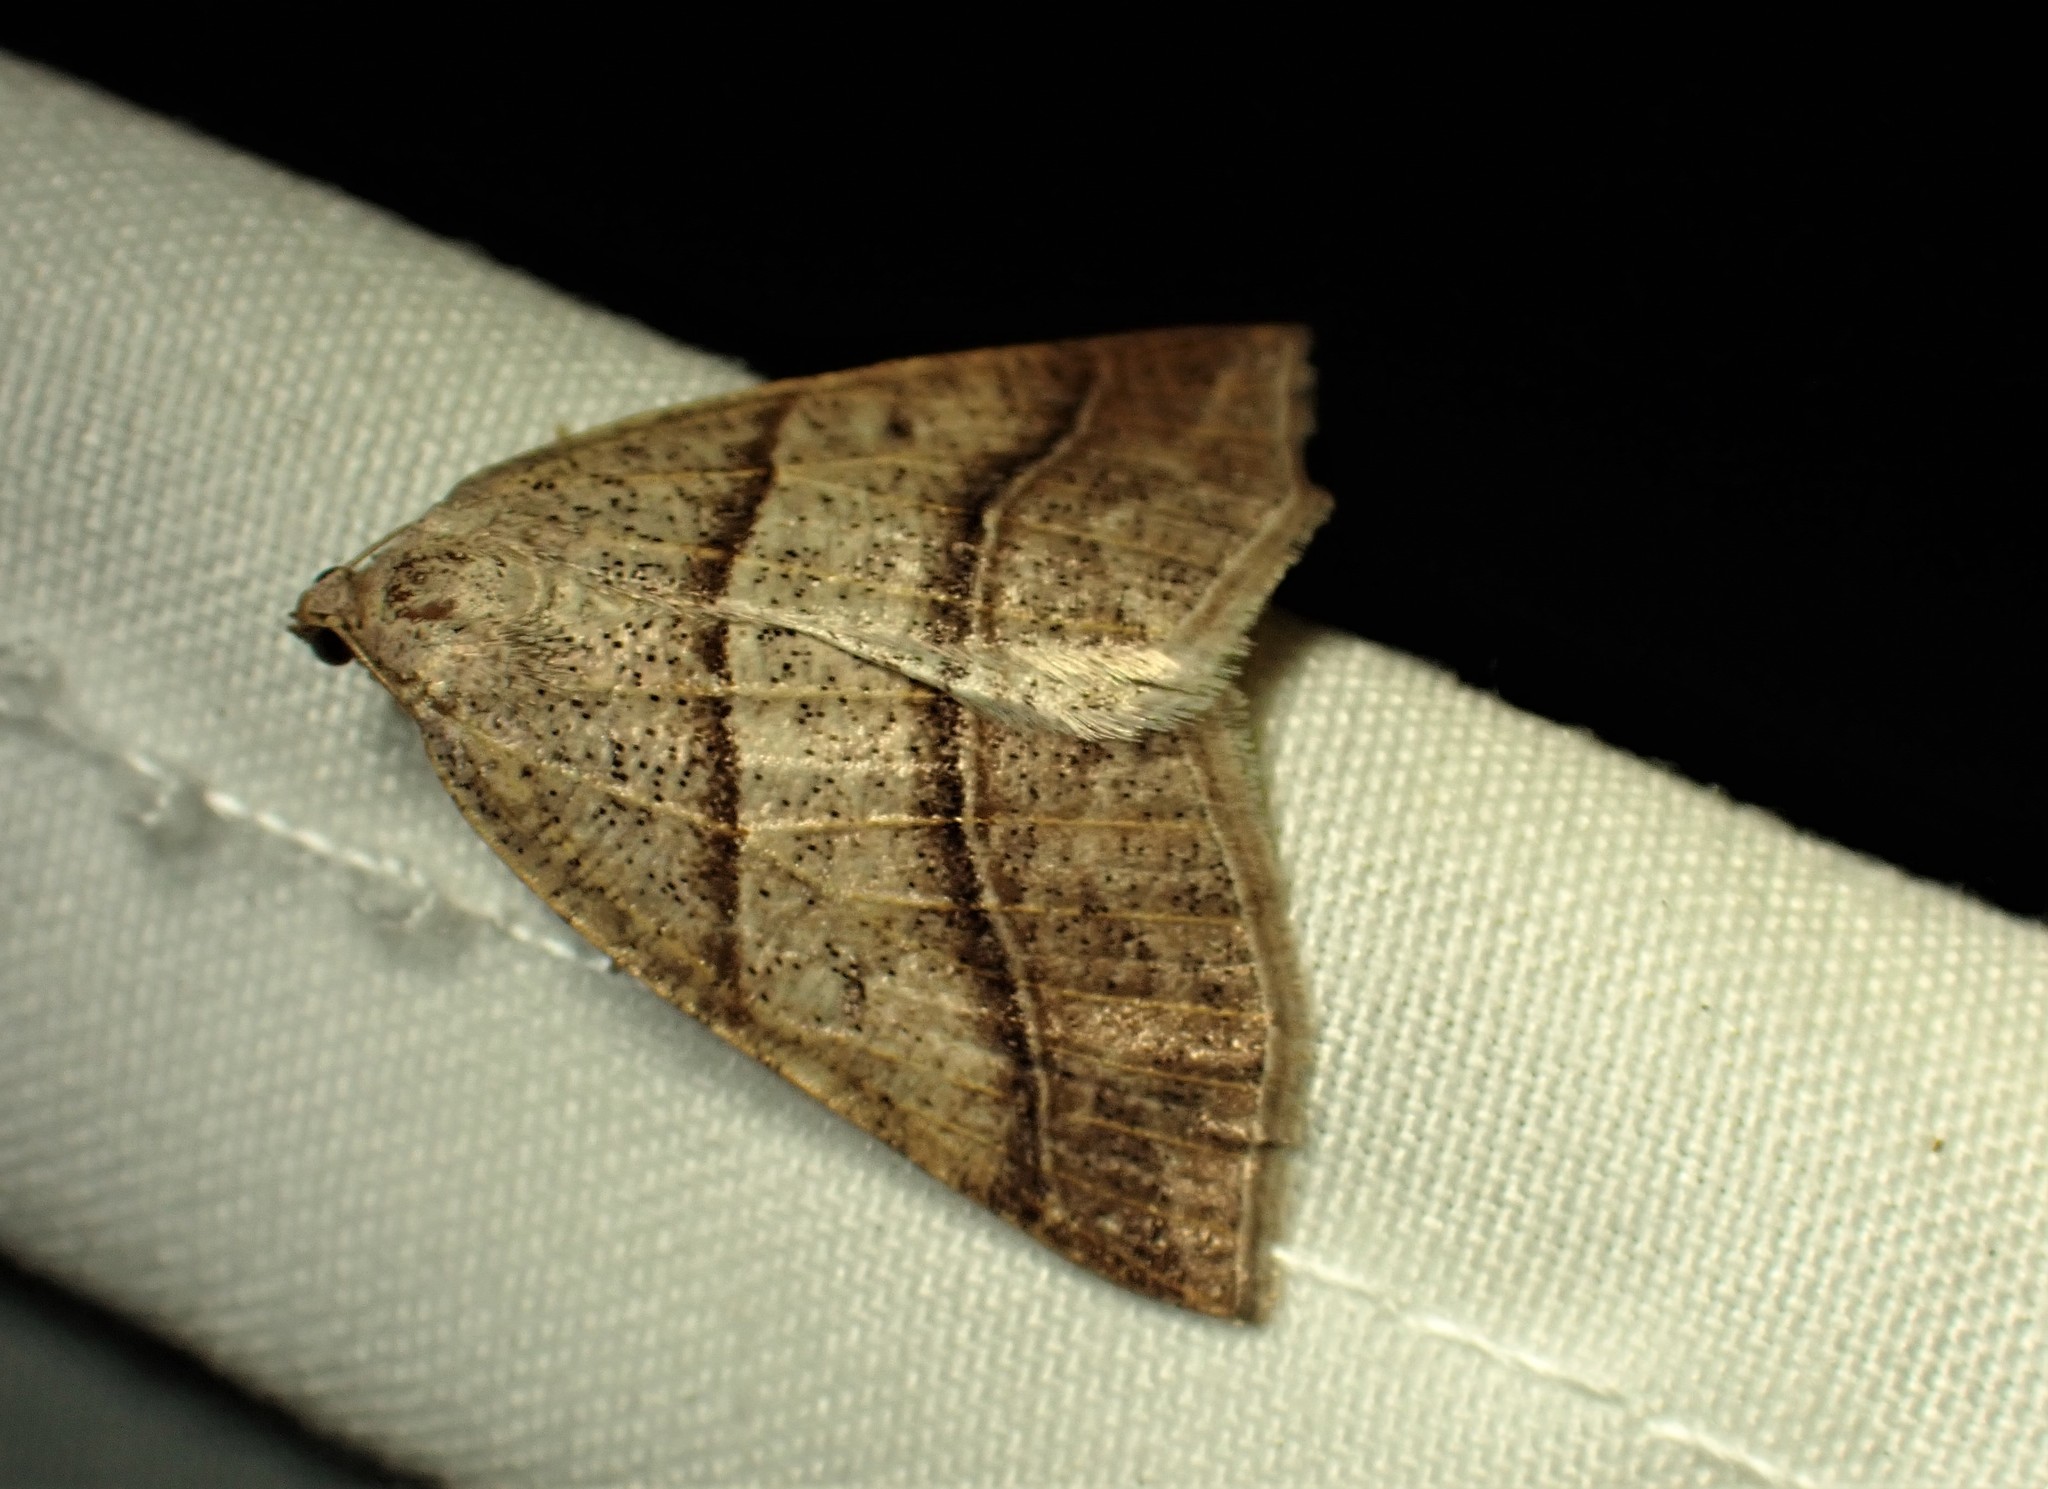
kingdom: Animalia
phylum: Arthropoda
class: Insecta
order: Lepidoptera
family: Pterophoridae
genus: Pterophorus
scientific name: Pterophorus Petrophora subaequaria
